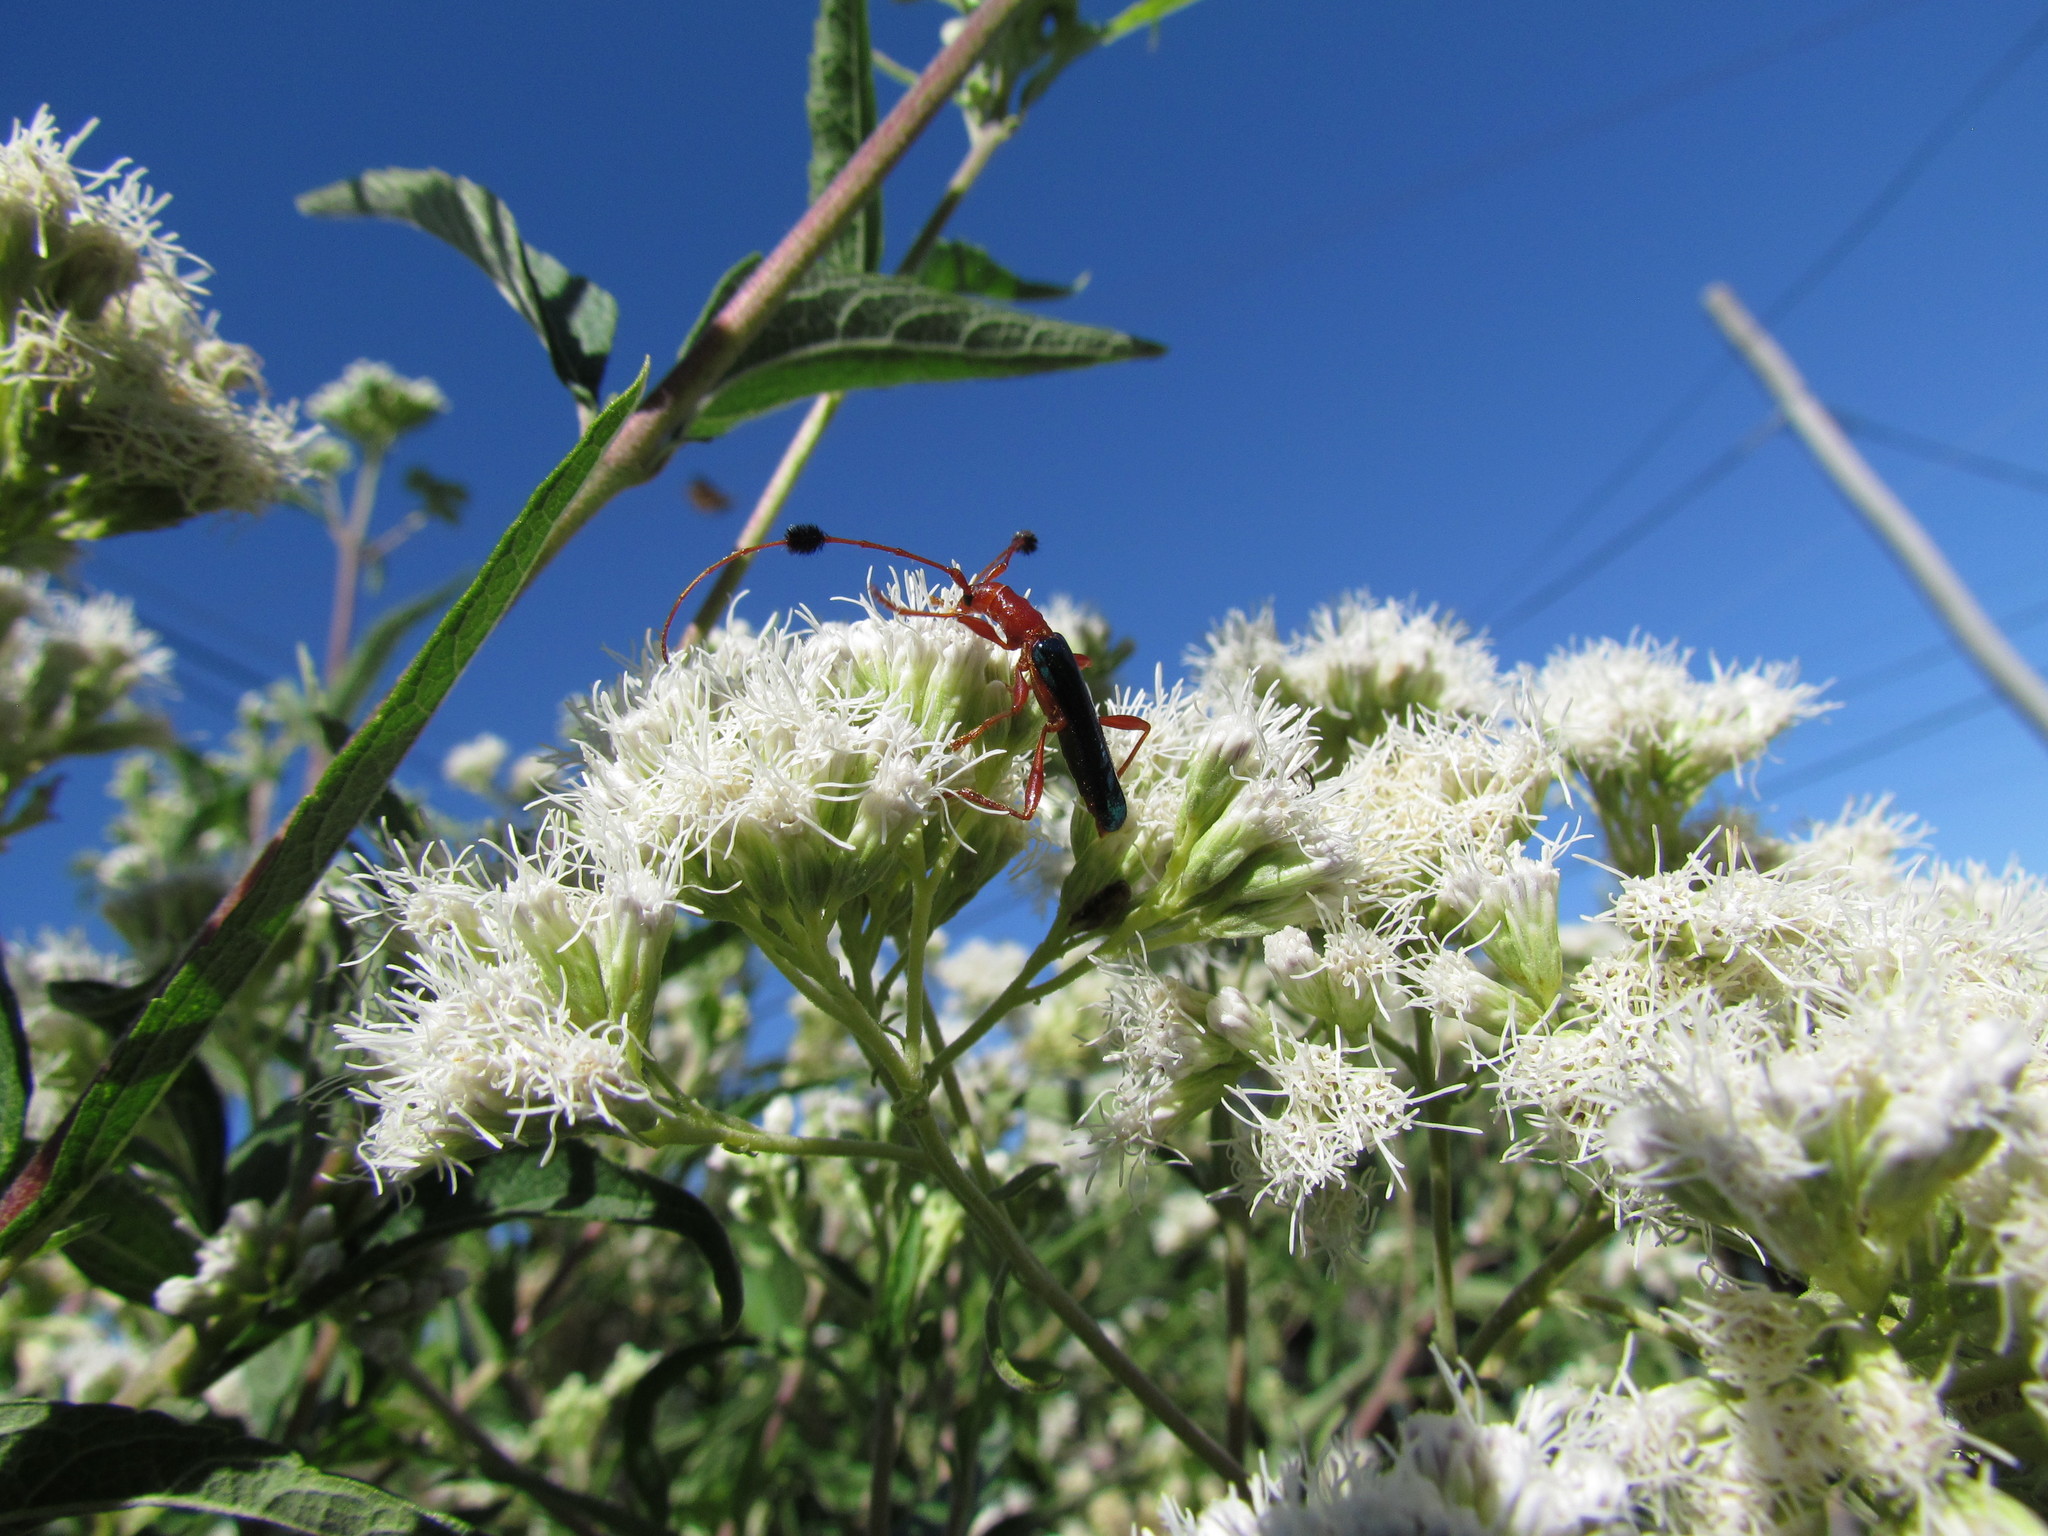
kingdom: Animalia
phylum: Arthropoda
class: Insecta
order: Coleoptera
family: Cerambycidae
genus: Paromoeocerus
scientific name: Paromoeocerus barbicornis
